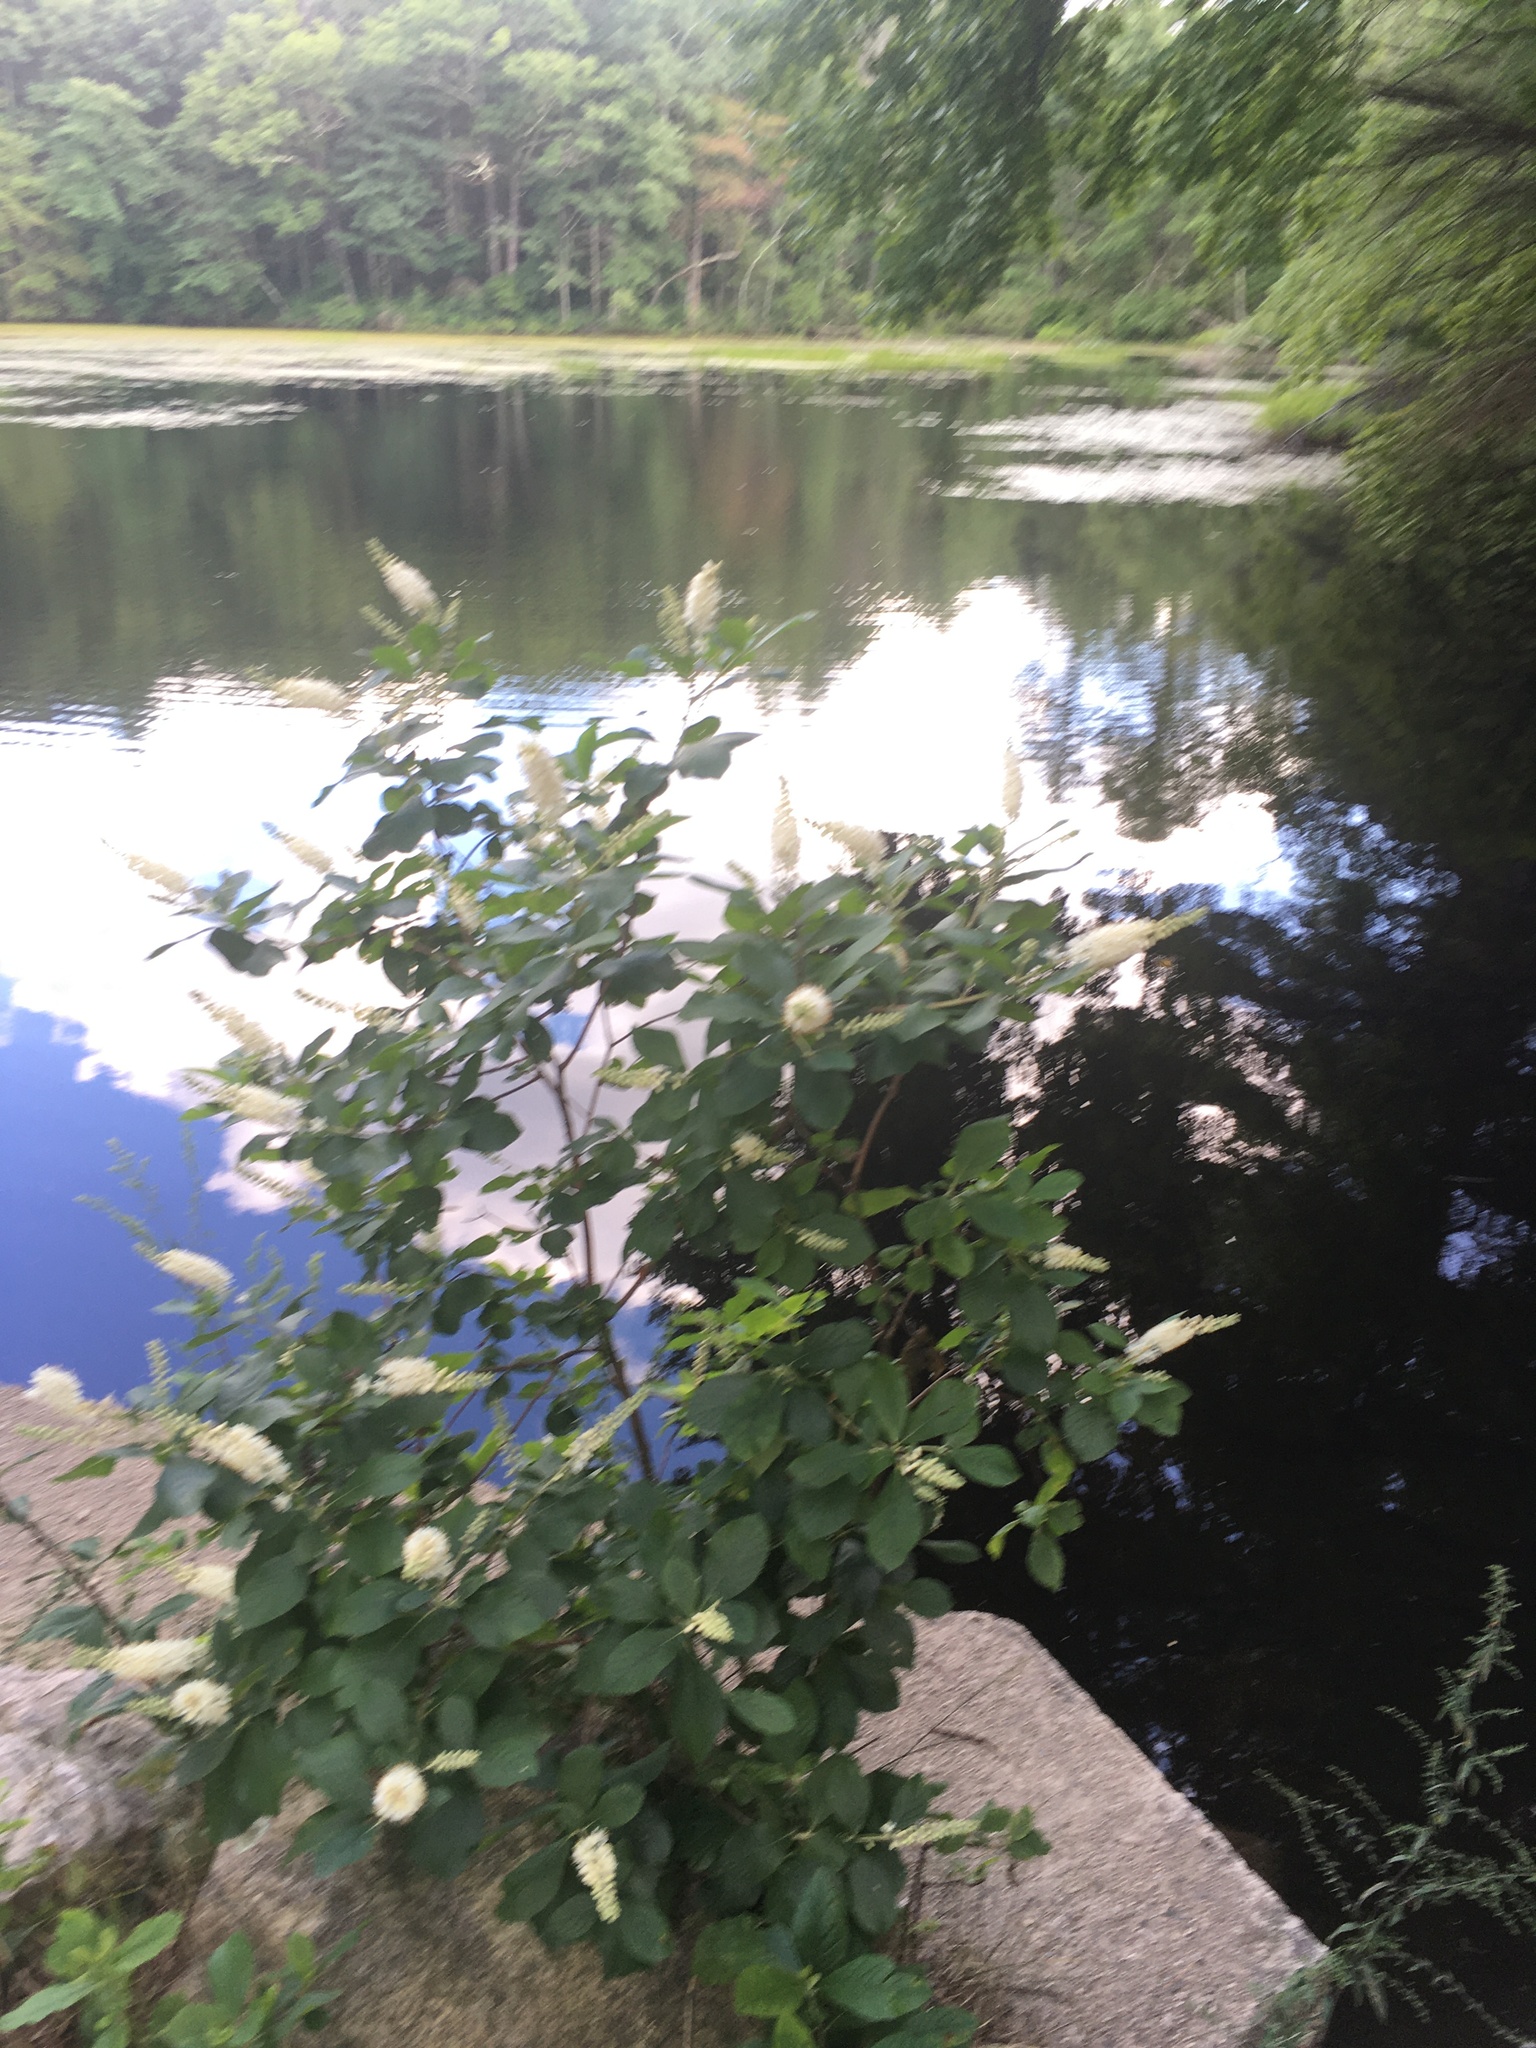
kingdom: Plantae
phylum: Tracheophyta
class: Magnoliopsida
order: Ericales
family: Clethraceae
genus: Clethra
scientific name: Clethra alnifolia
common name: Sweet pepperbush
